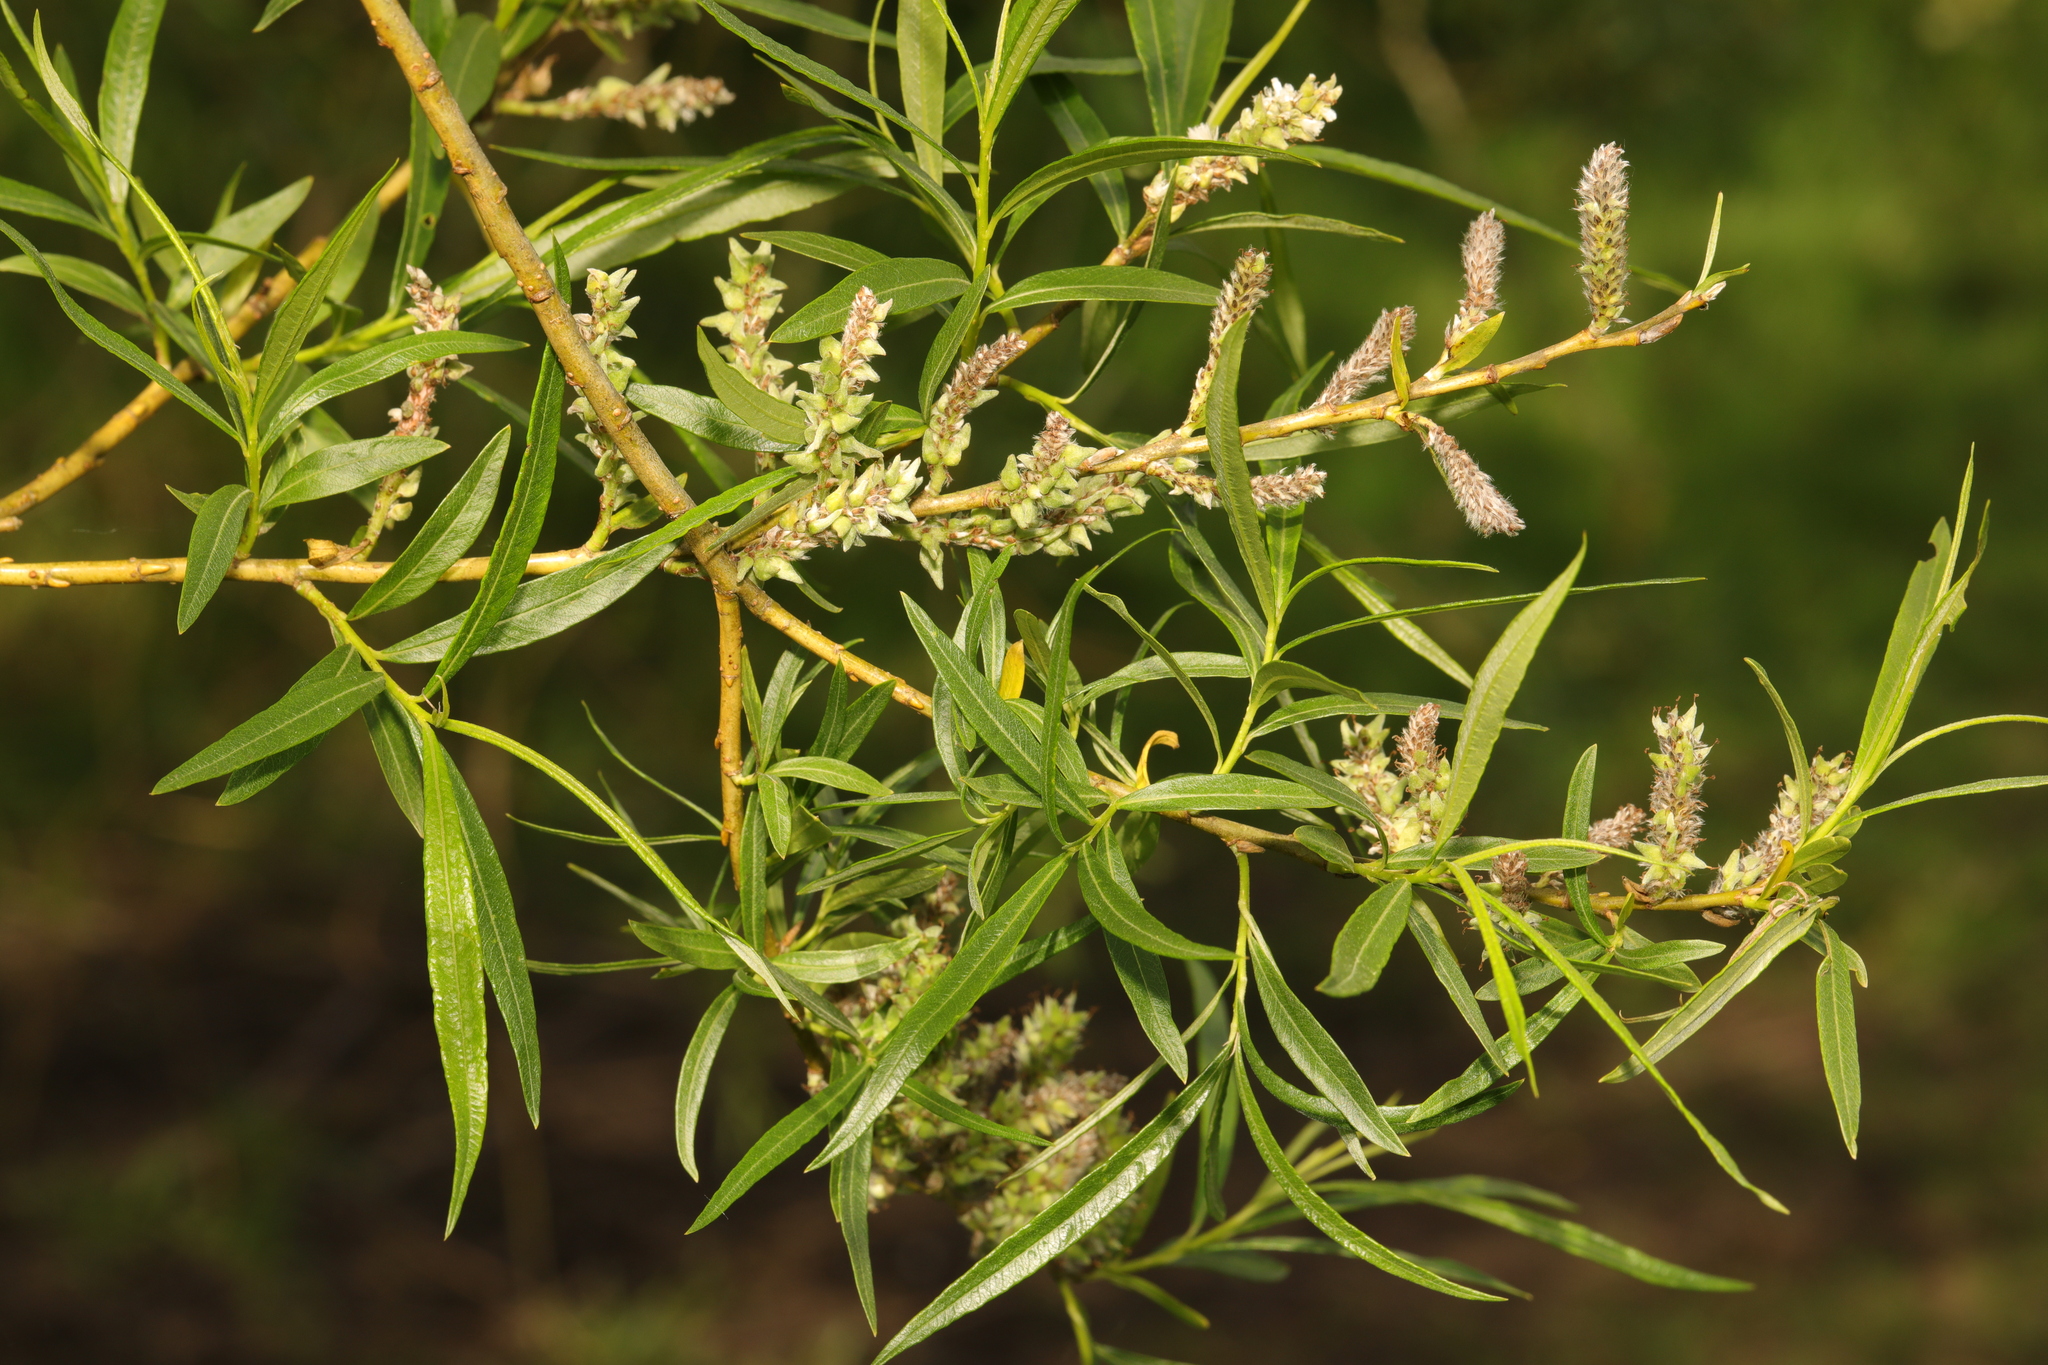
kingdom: Plantae
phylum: Tracheophyta
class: Magnoliopsida
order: Malpighiales
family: Salicaceae
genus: Salix
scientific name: Salix viminalis
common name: Osier
